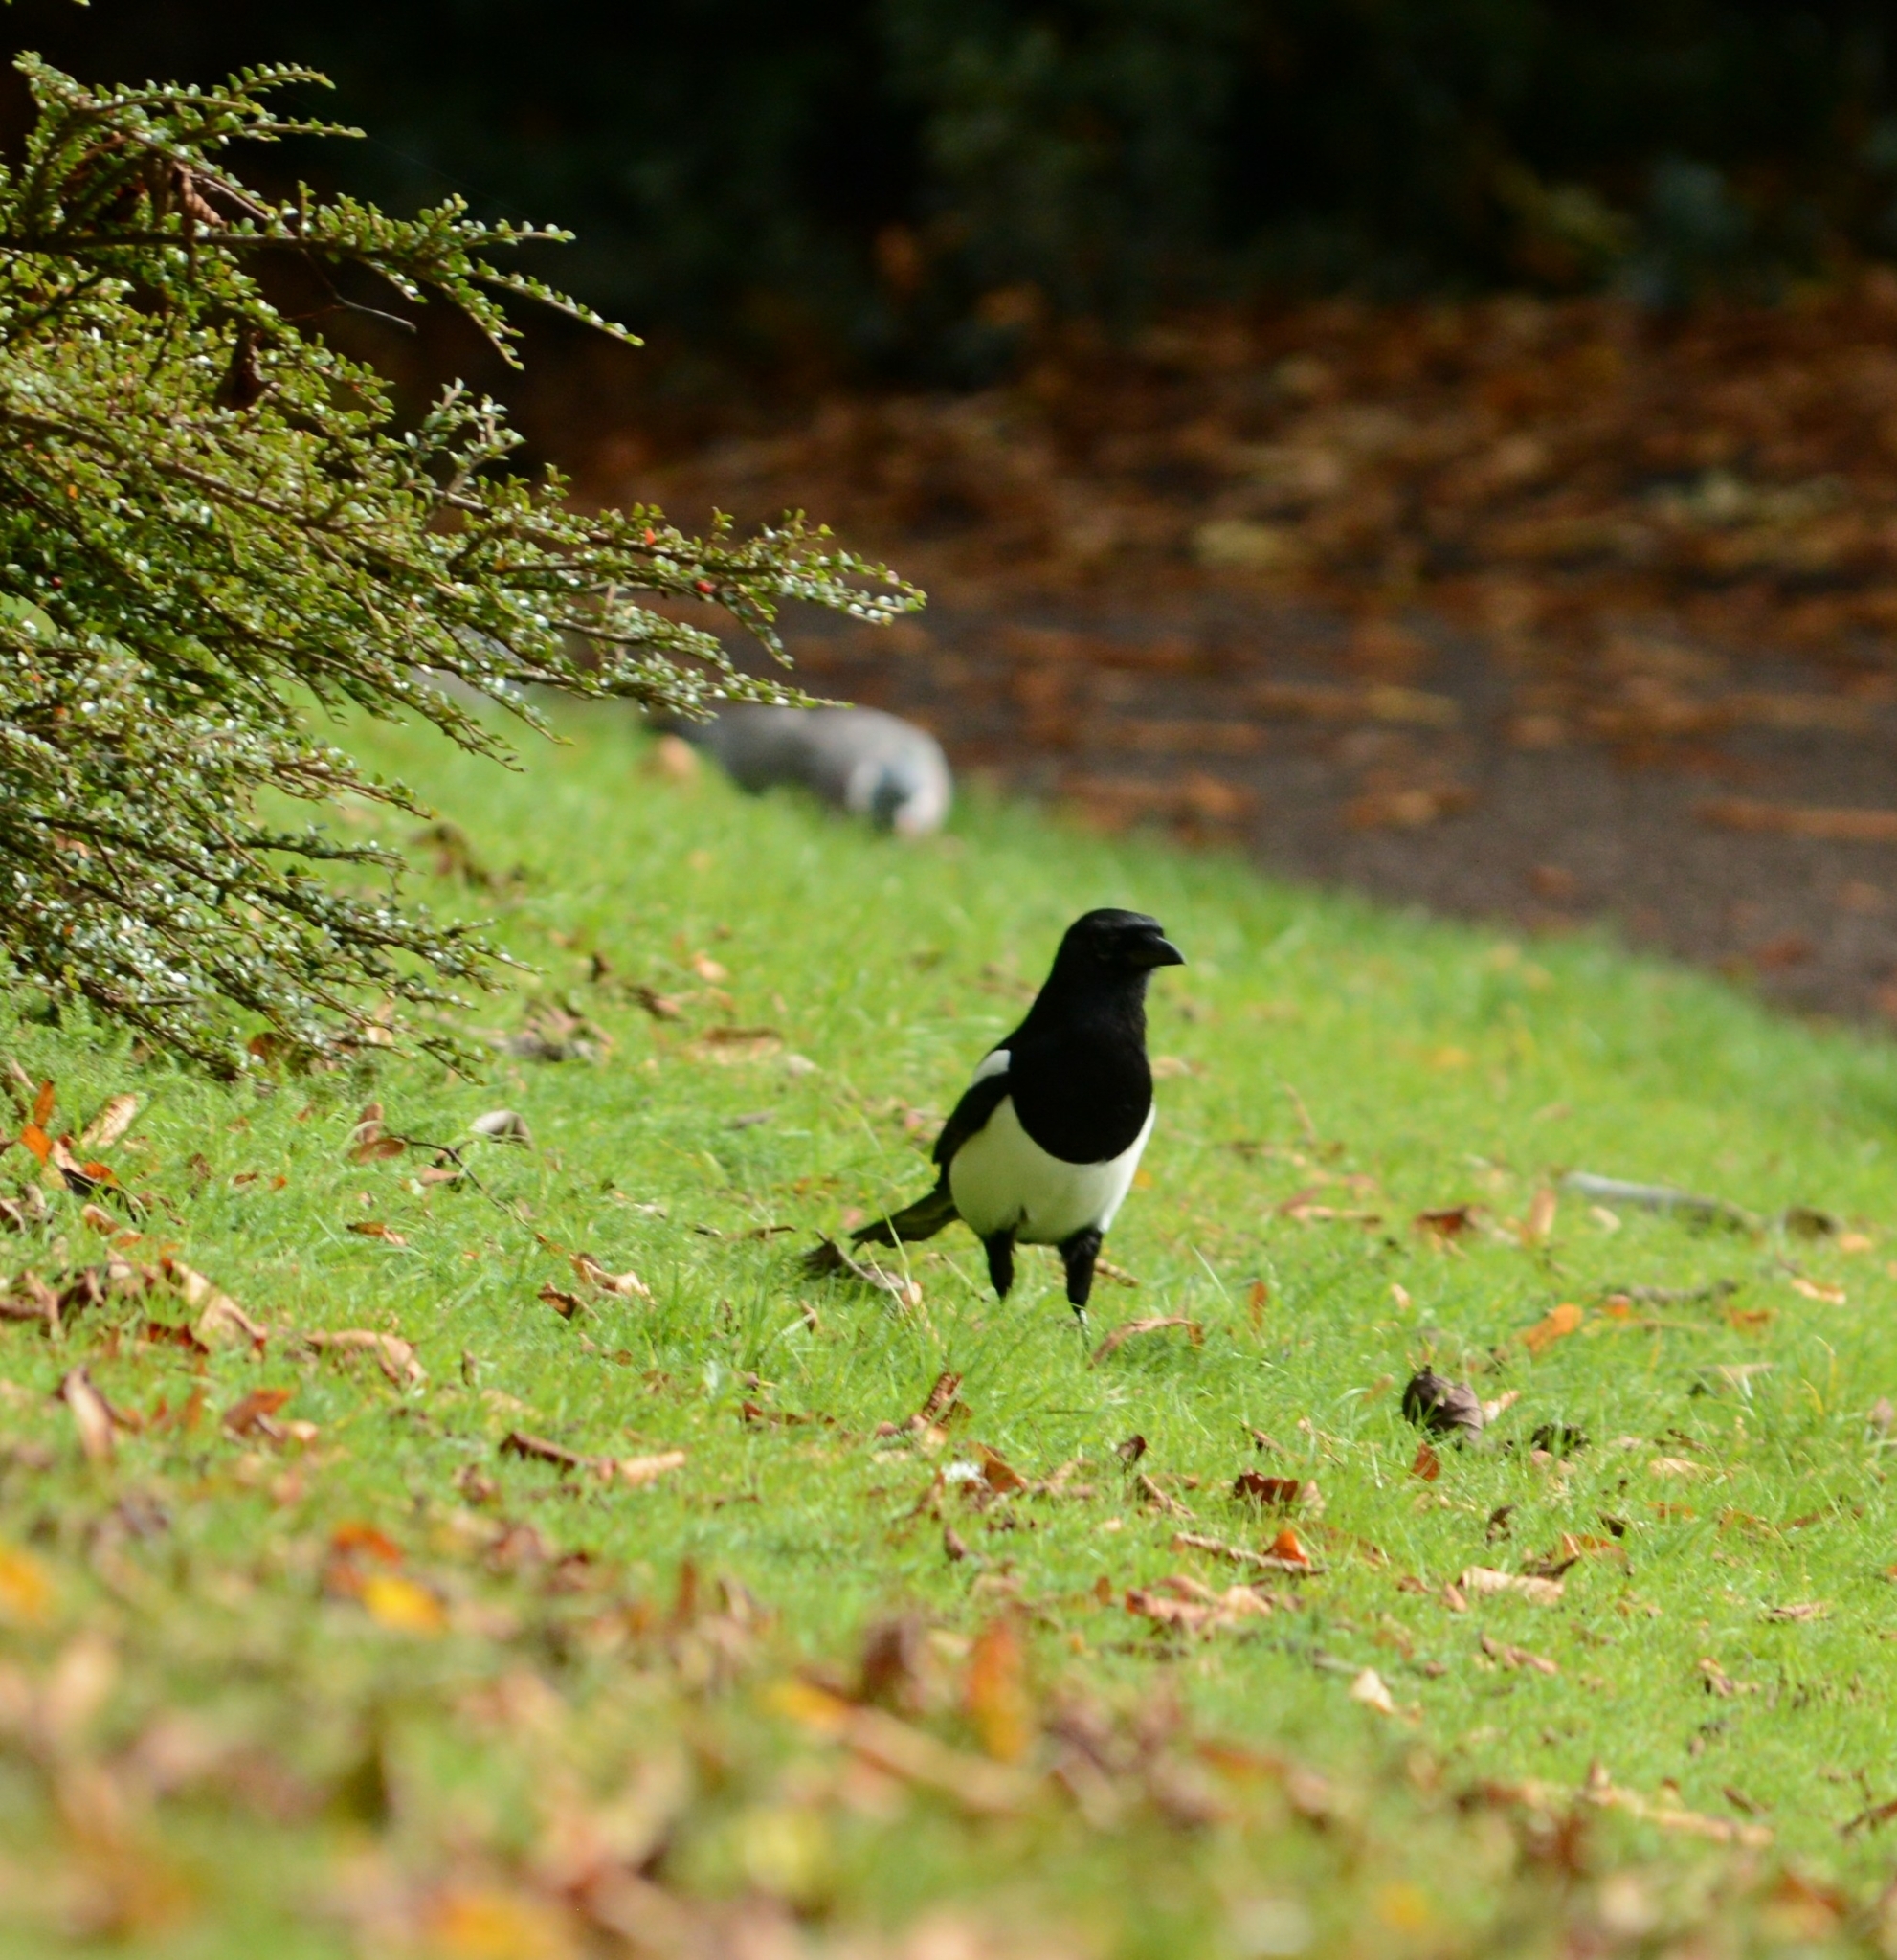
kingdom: Animalia
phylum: Chordata
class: Aves
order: Passeriformes
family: Corvidae
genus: Pica
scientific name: Pica pica
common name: Eurasian magpie
